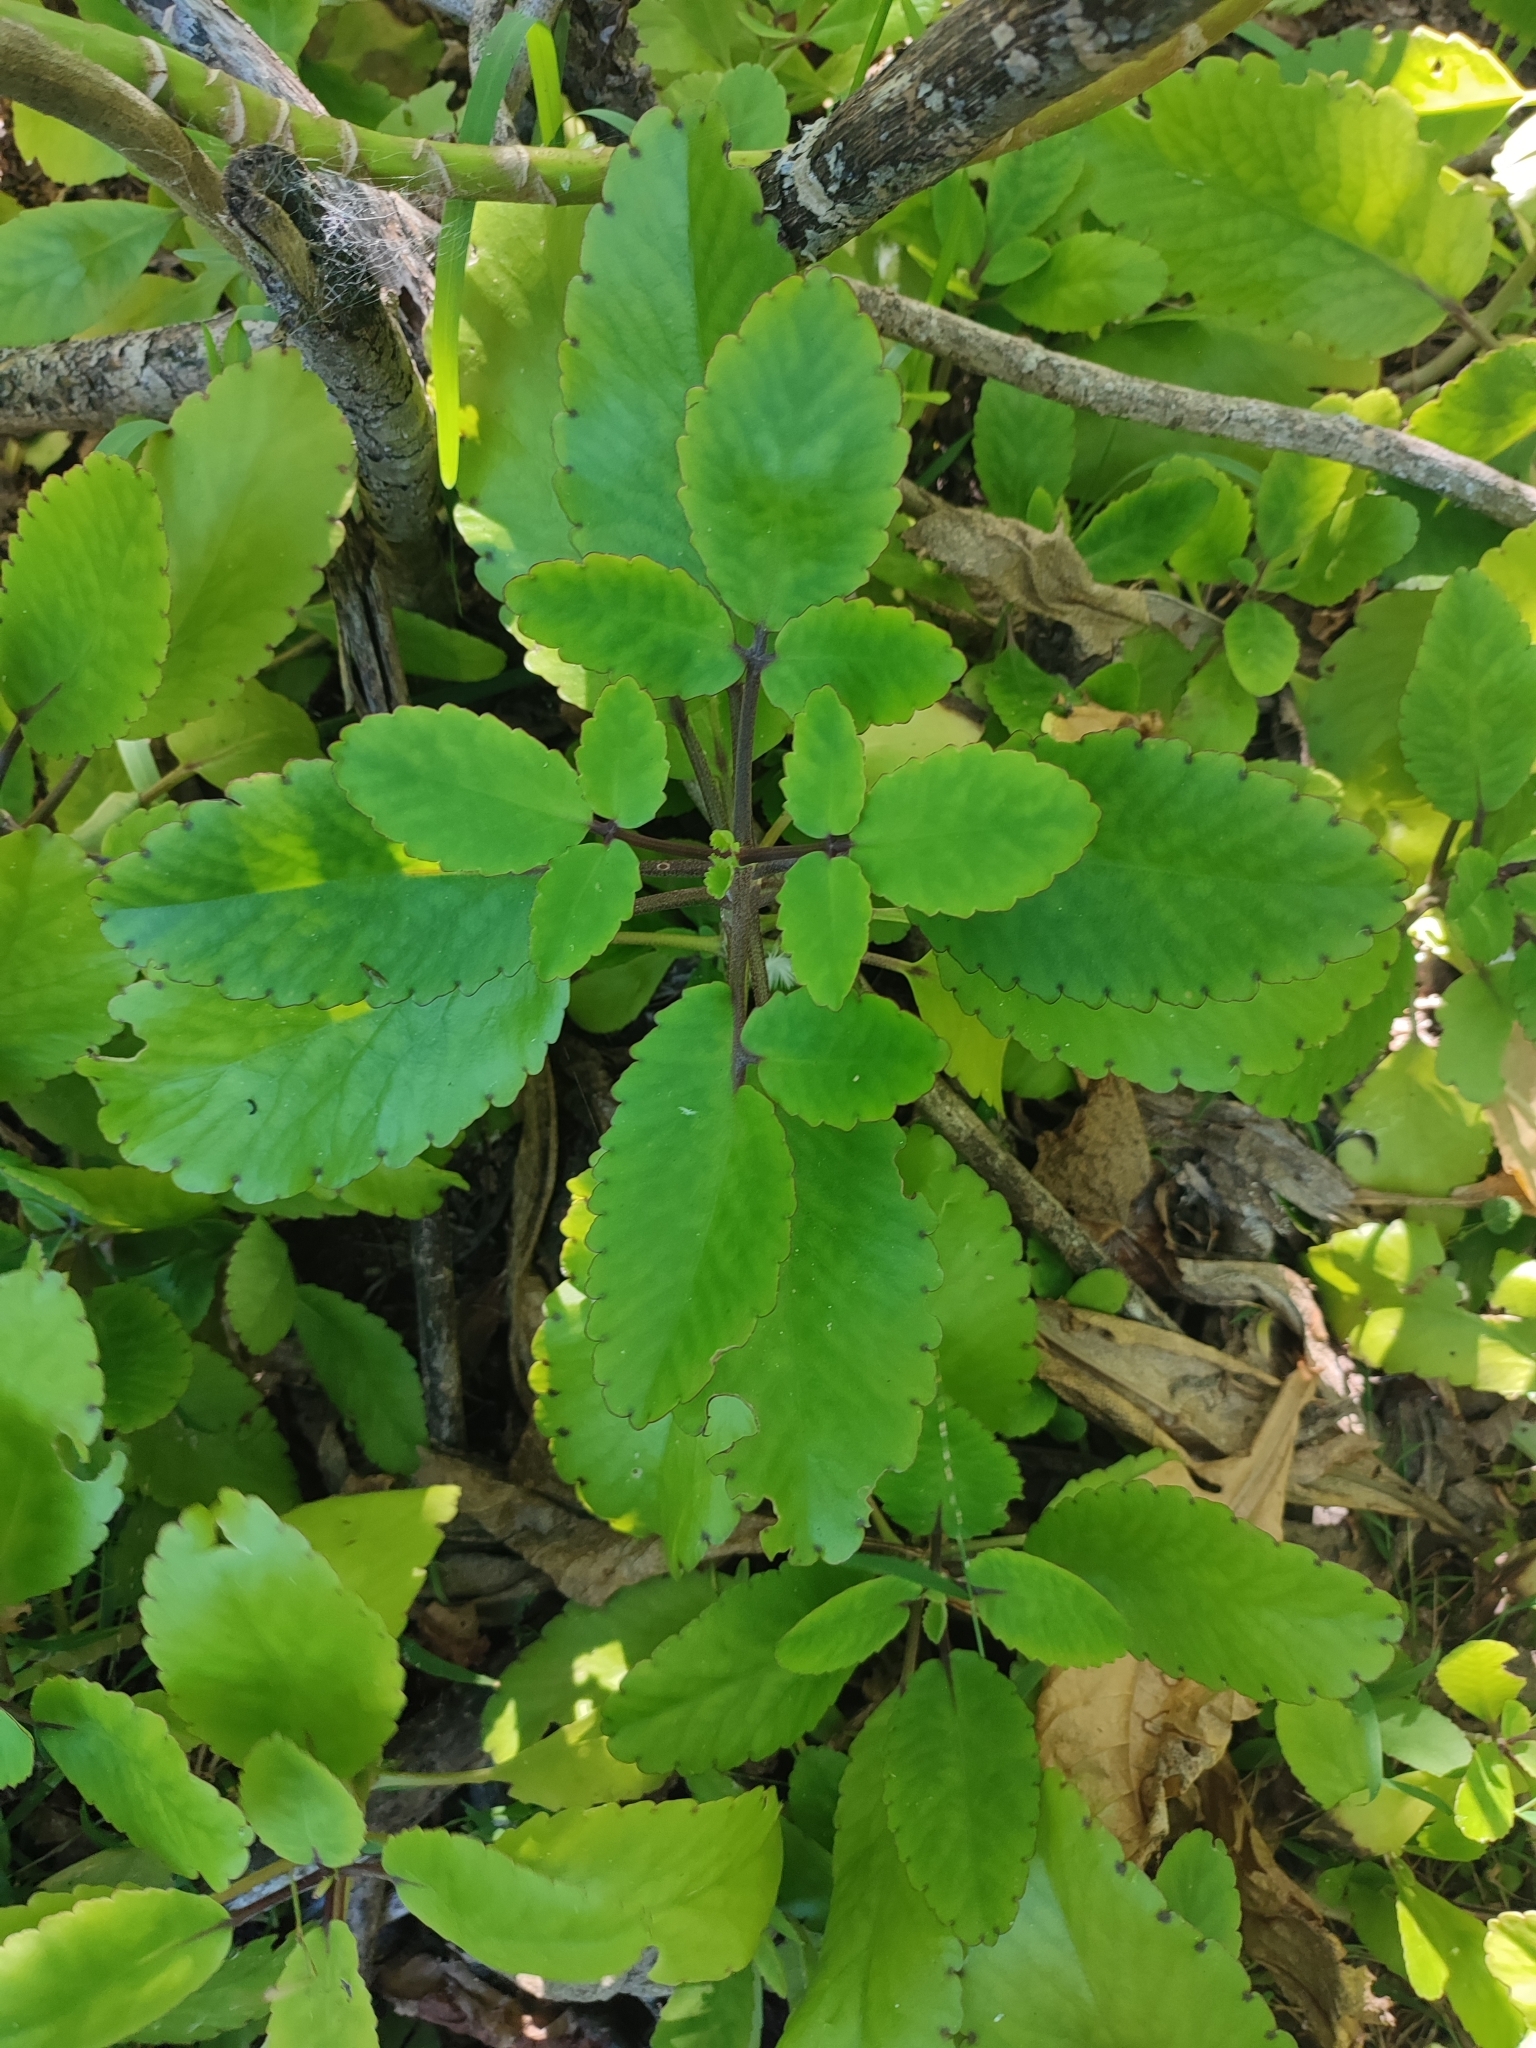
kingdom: Plantae
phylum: Tracheophyta
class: Magnoliopsida
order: Saxifragales
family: Crassulaceae
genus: Kalanchoe
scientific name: Kalanchoe pinnata
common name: Cathedral bells
